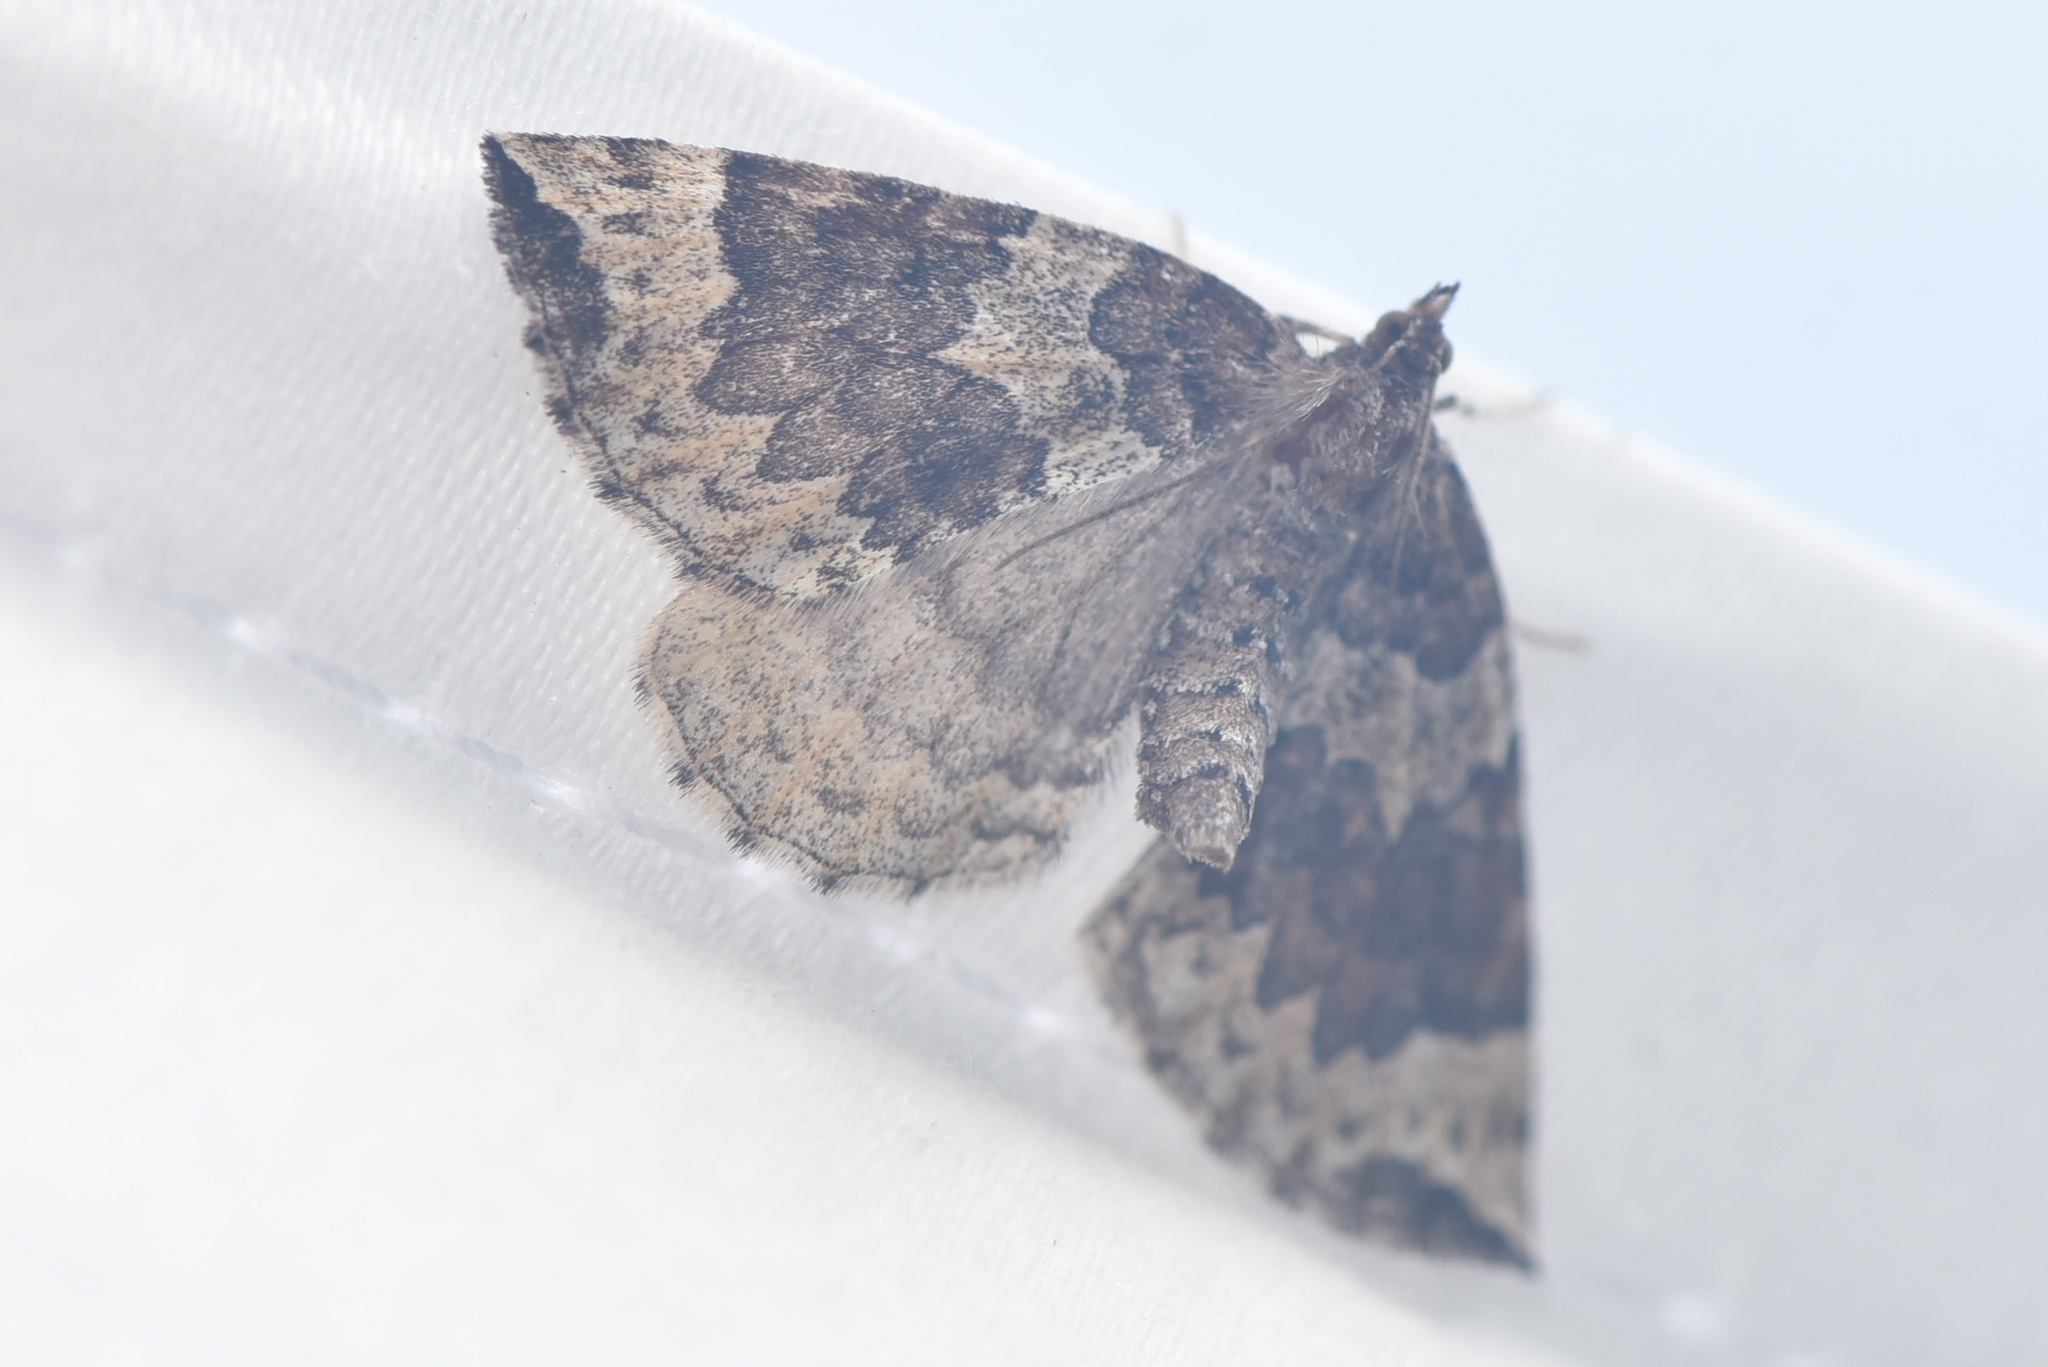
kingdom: Animalia
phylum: Arthropoda
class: Insecta
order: Lepidoptera
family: Geometridae
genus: Eulithis
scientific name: Eulithis destinata
